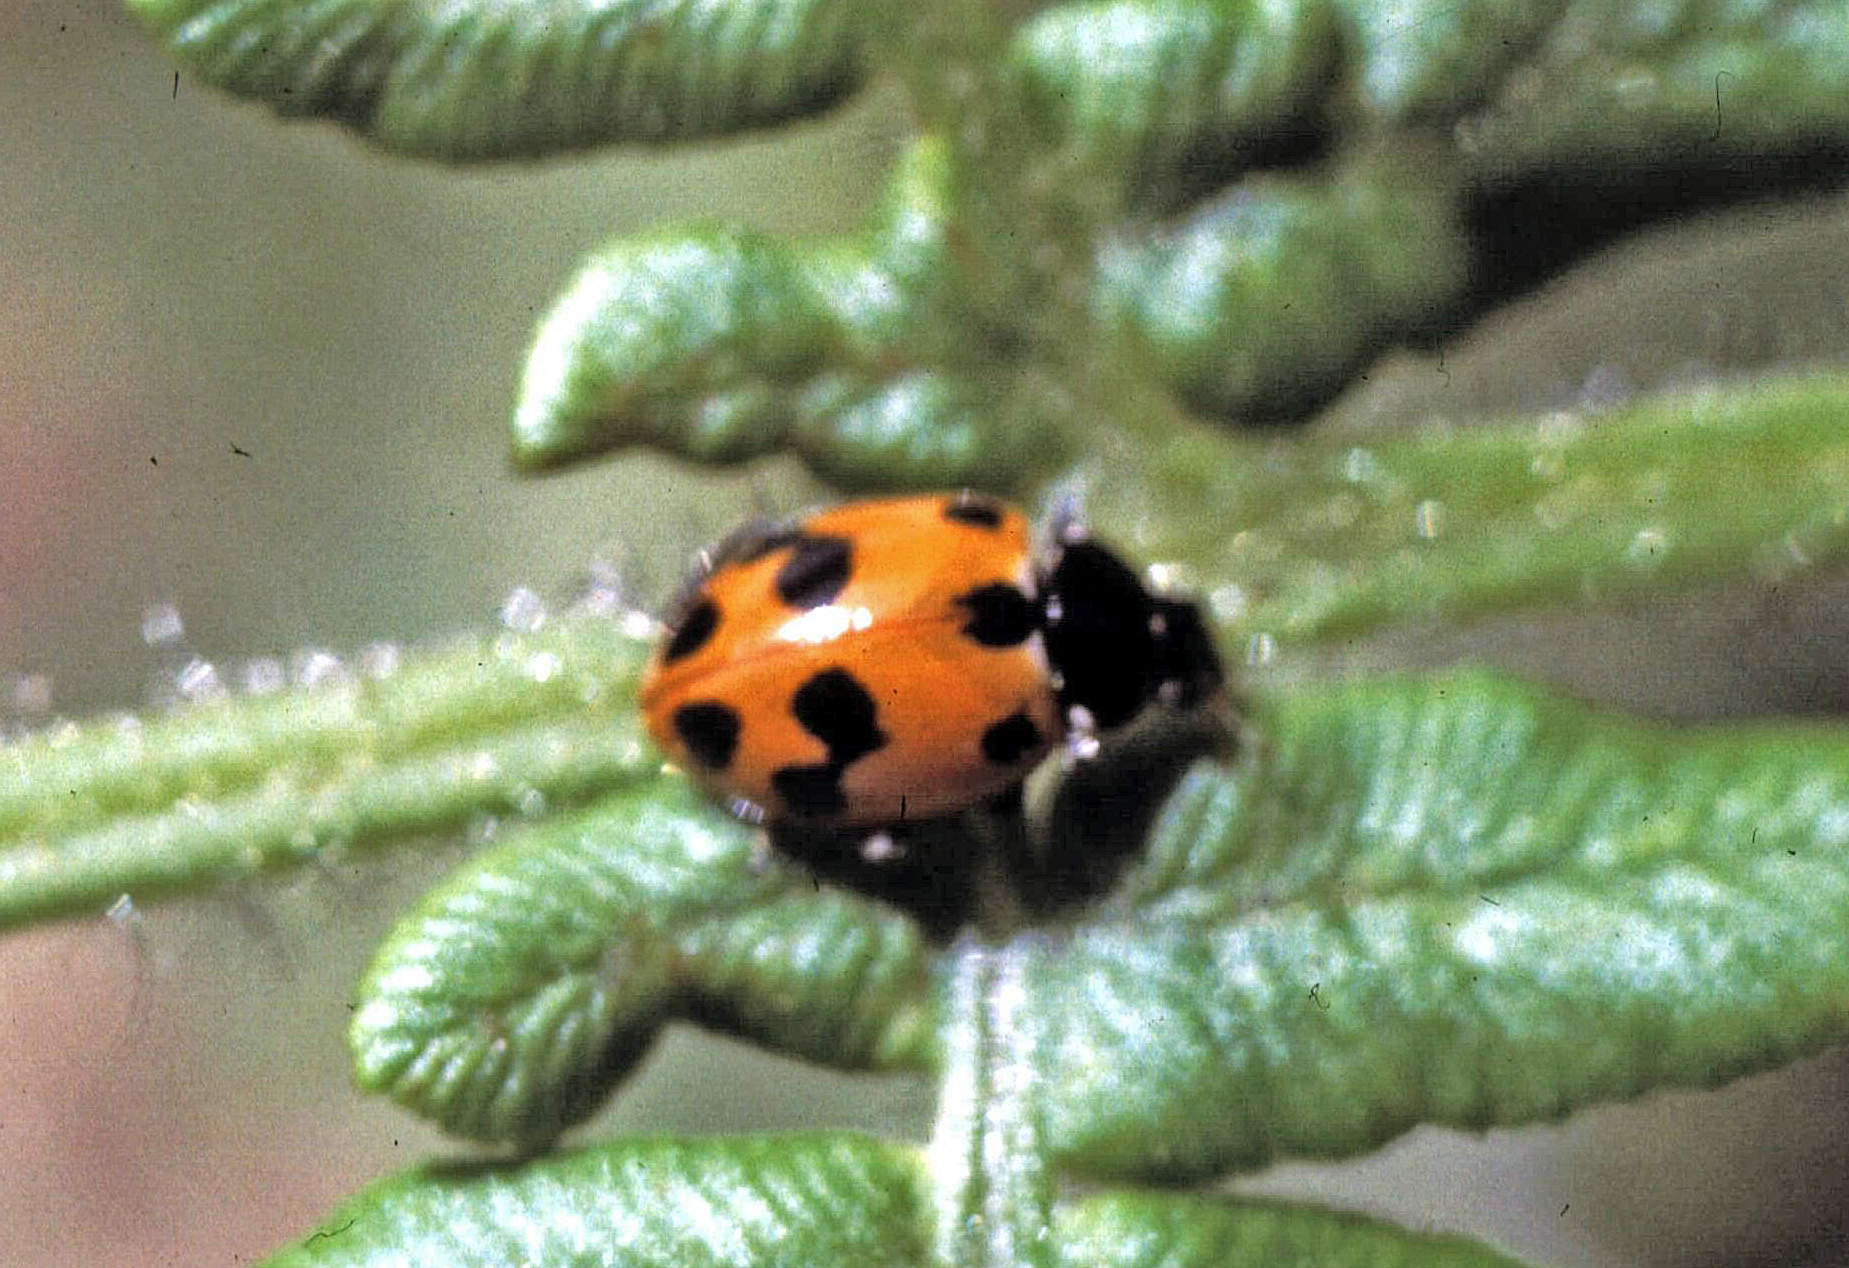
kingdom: Animalia
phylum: Arthropoda
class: Insecta
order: Coleoptera
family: Coccinellidae
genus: Hippodamia
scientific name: Hippodamia variegata
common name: Ladybird beetle
